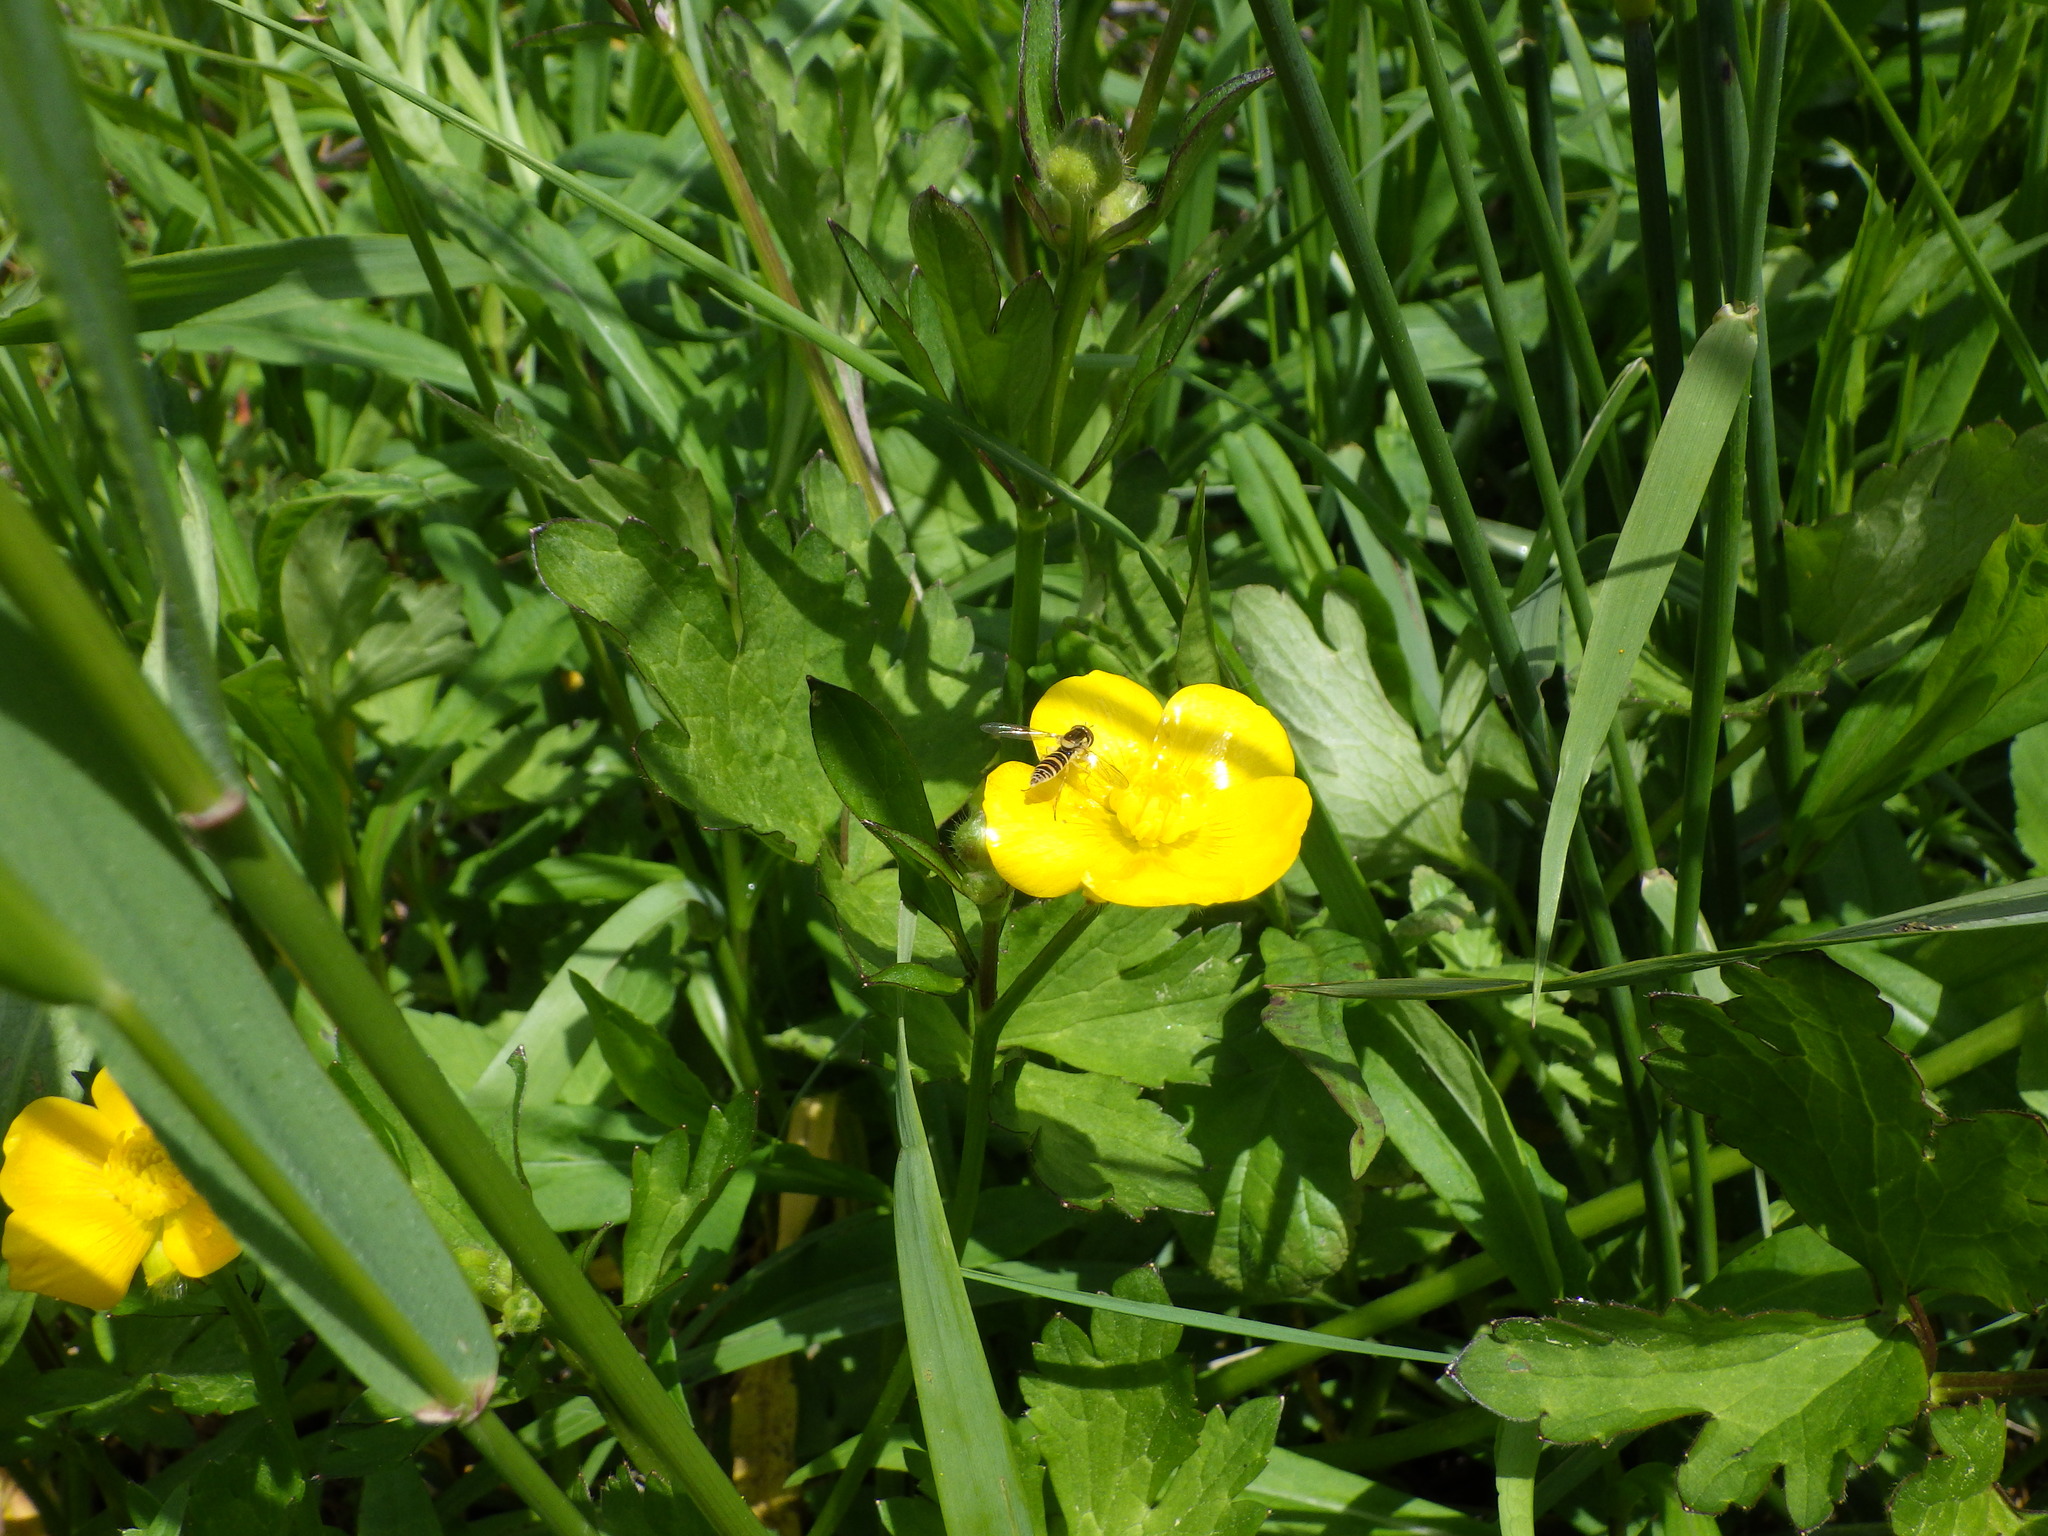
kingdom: Plantae
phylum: Tracheophyta
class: Magnoliopsida
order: Ranunculales
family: Ranunculaceae
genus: Ranunculus
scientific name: Ranunculus repens
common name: Creeping buttercup
